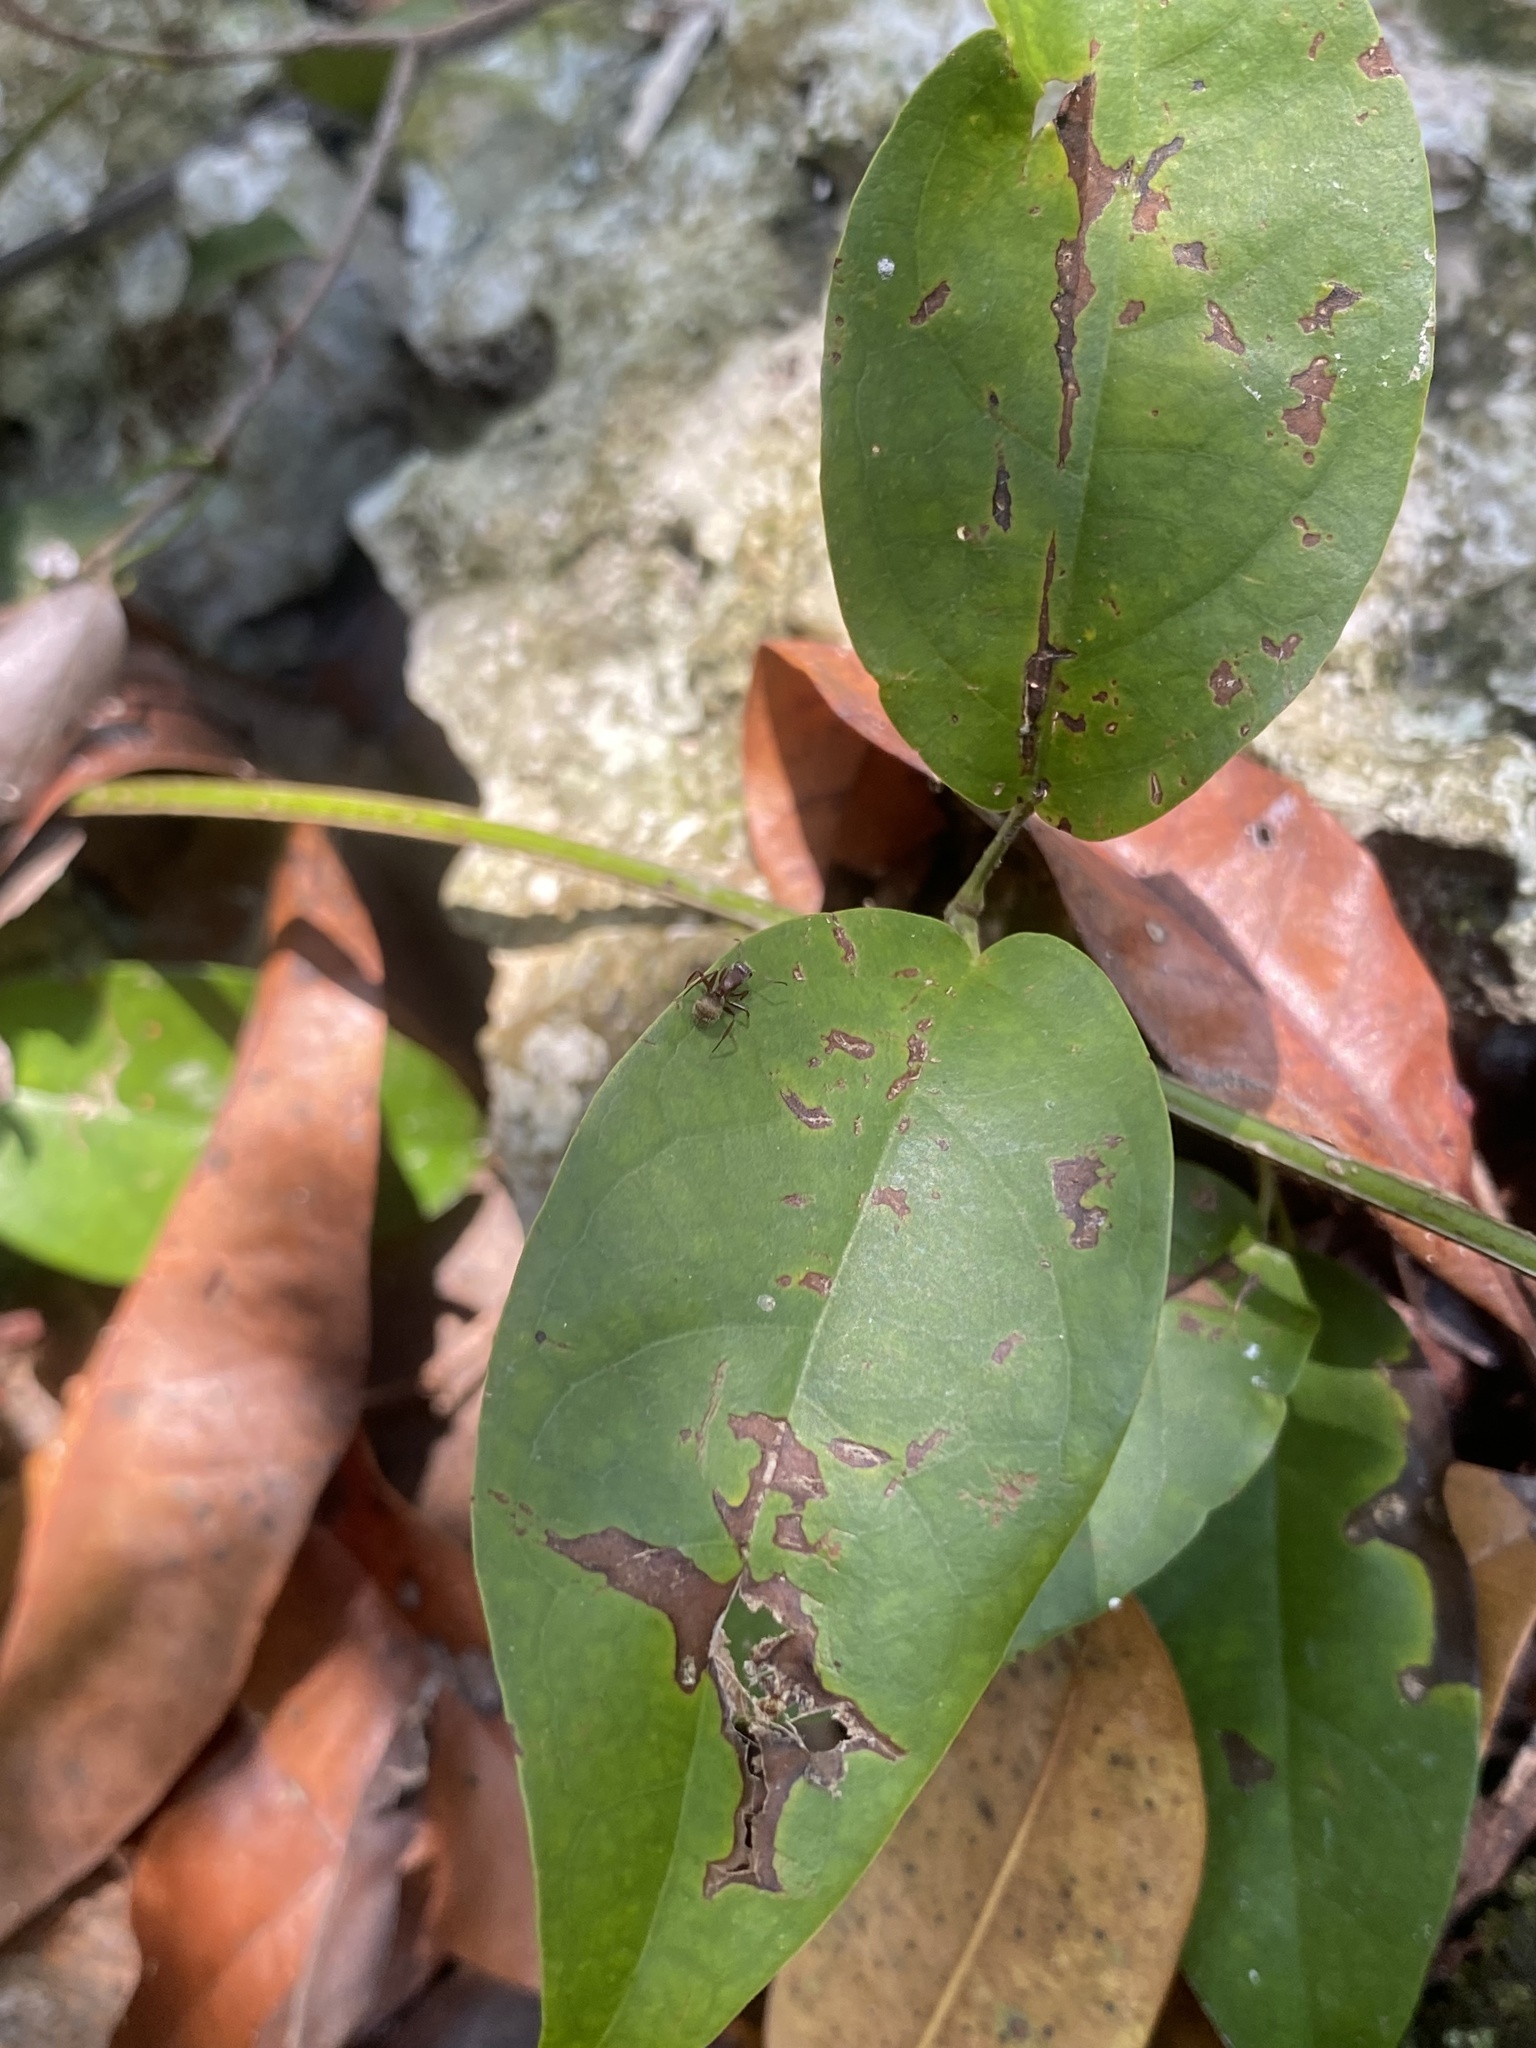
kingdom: Animalia
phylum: Arthropoda
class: Insecta
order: Hymenoptera
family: Formicidae
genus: Camponotus
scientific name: Camponotus planatus
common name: Compact carpenter ant
